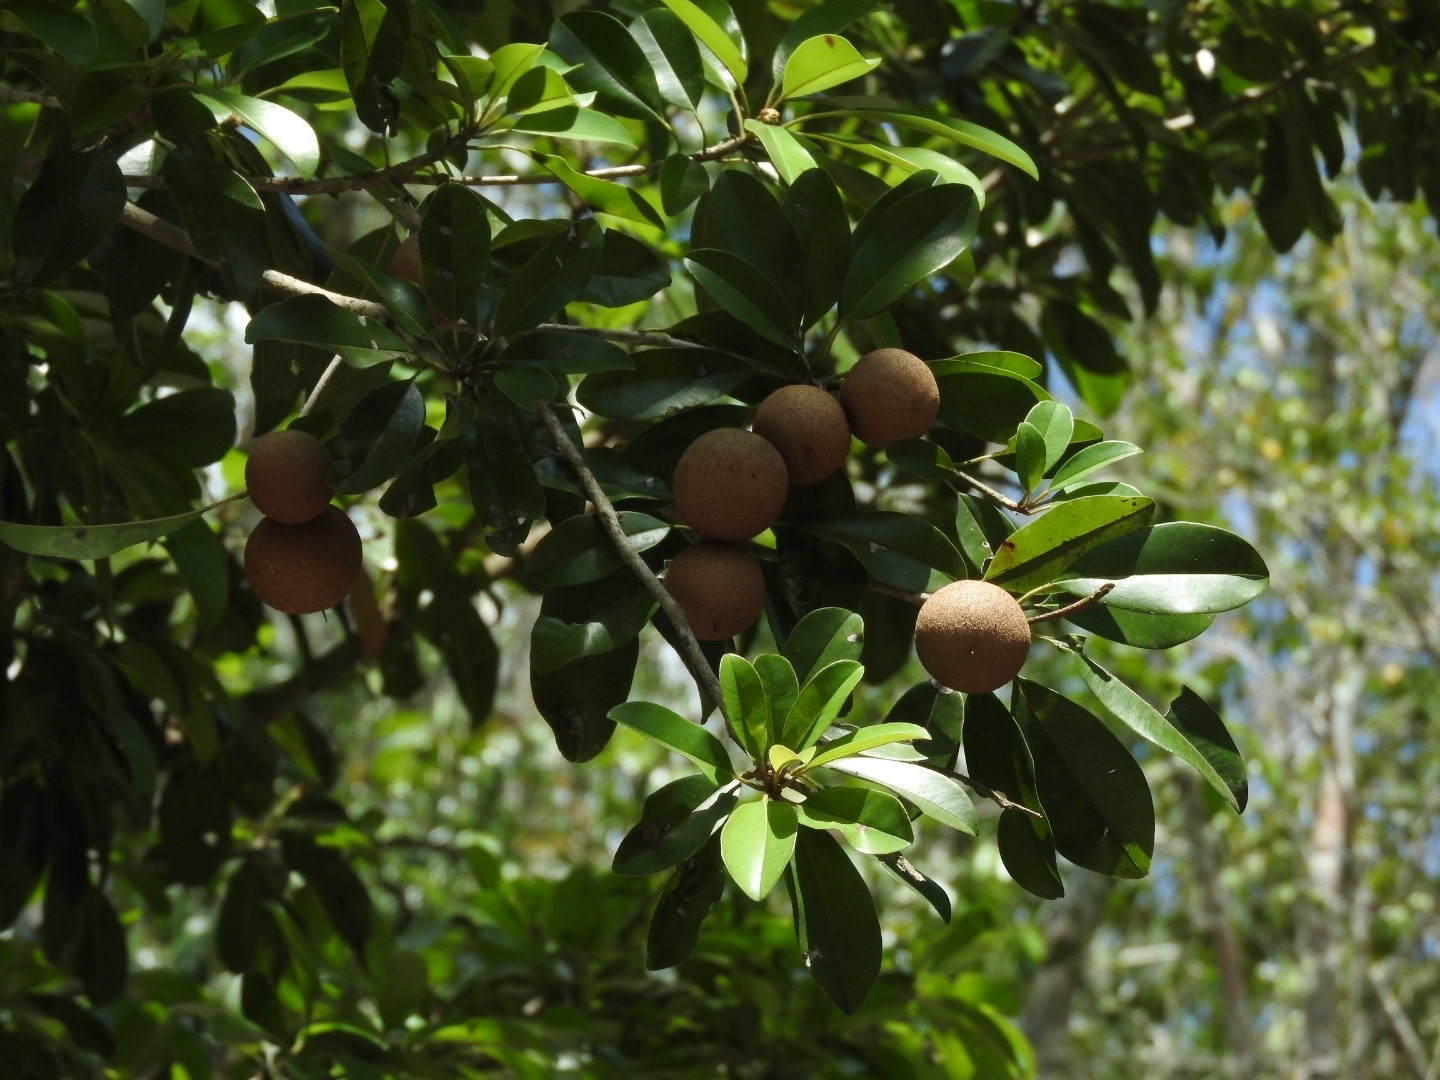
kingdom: Plantae
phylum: Tracheophyta
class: Magnoliopsida
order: Ericales
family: Sapotaceae
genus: Manilkara
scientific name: Manilkara zapota
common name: Sapodilla
